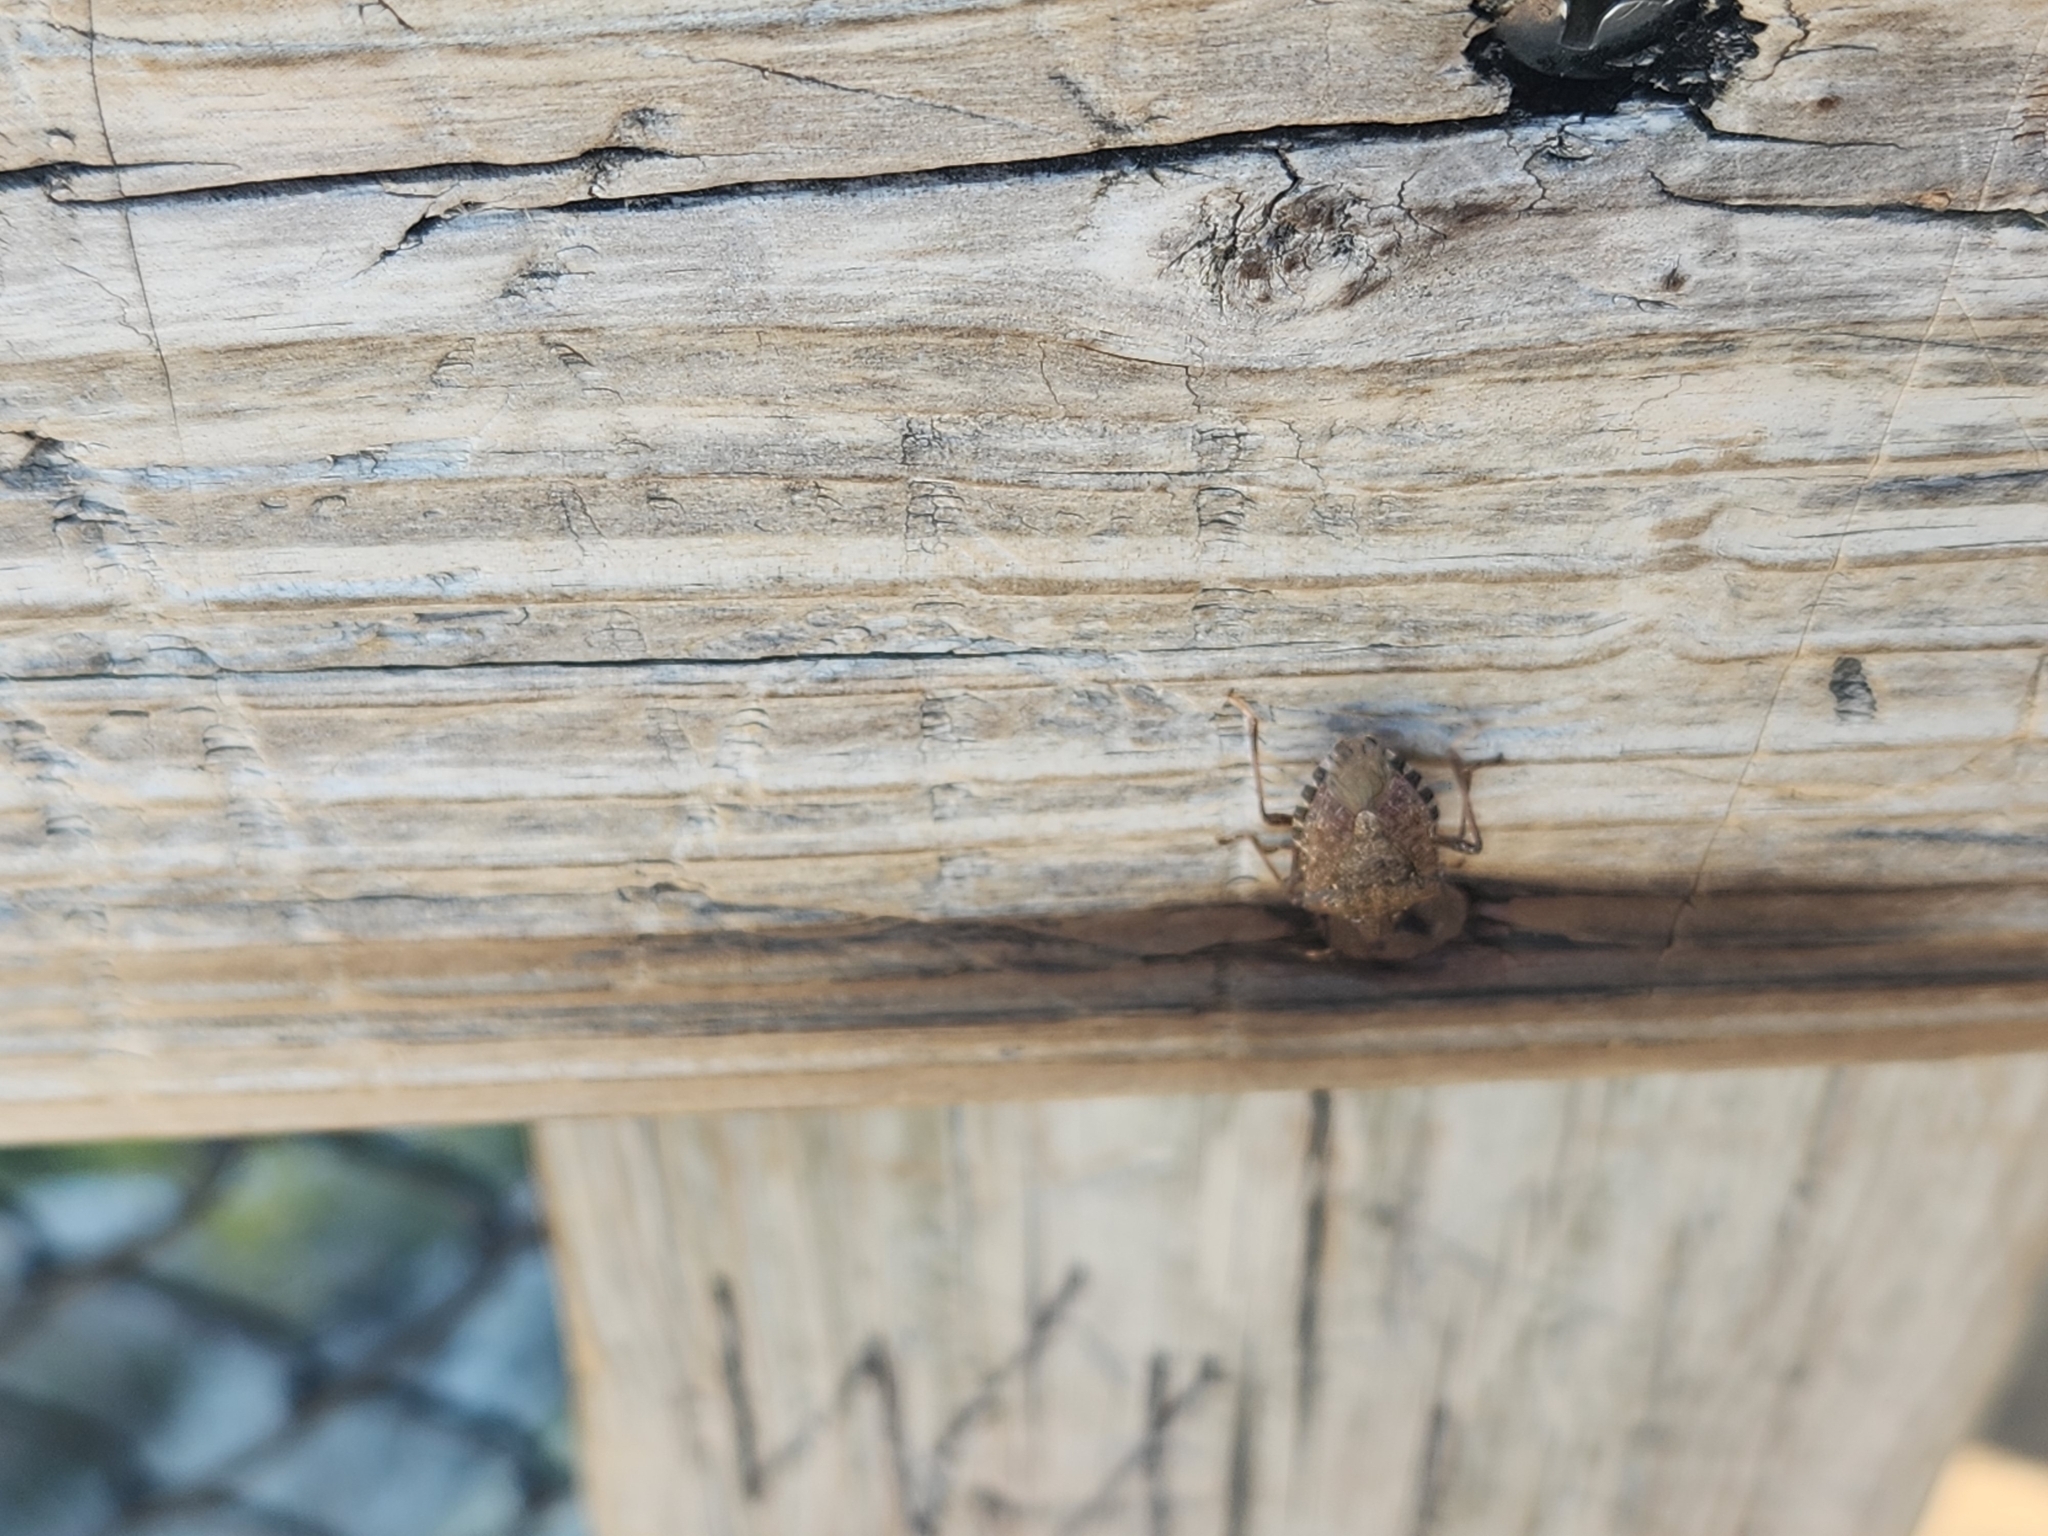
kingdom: Animalia
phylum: Arthropoda
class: Insecta
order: Hemiptera
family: Pentatomidae
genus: Halyomorpha
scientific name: Halyomorpha halys
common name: Brown marmorated stink bug
